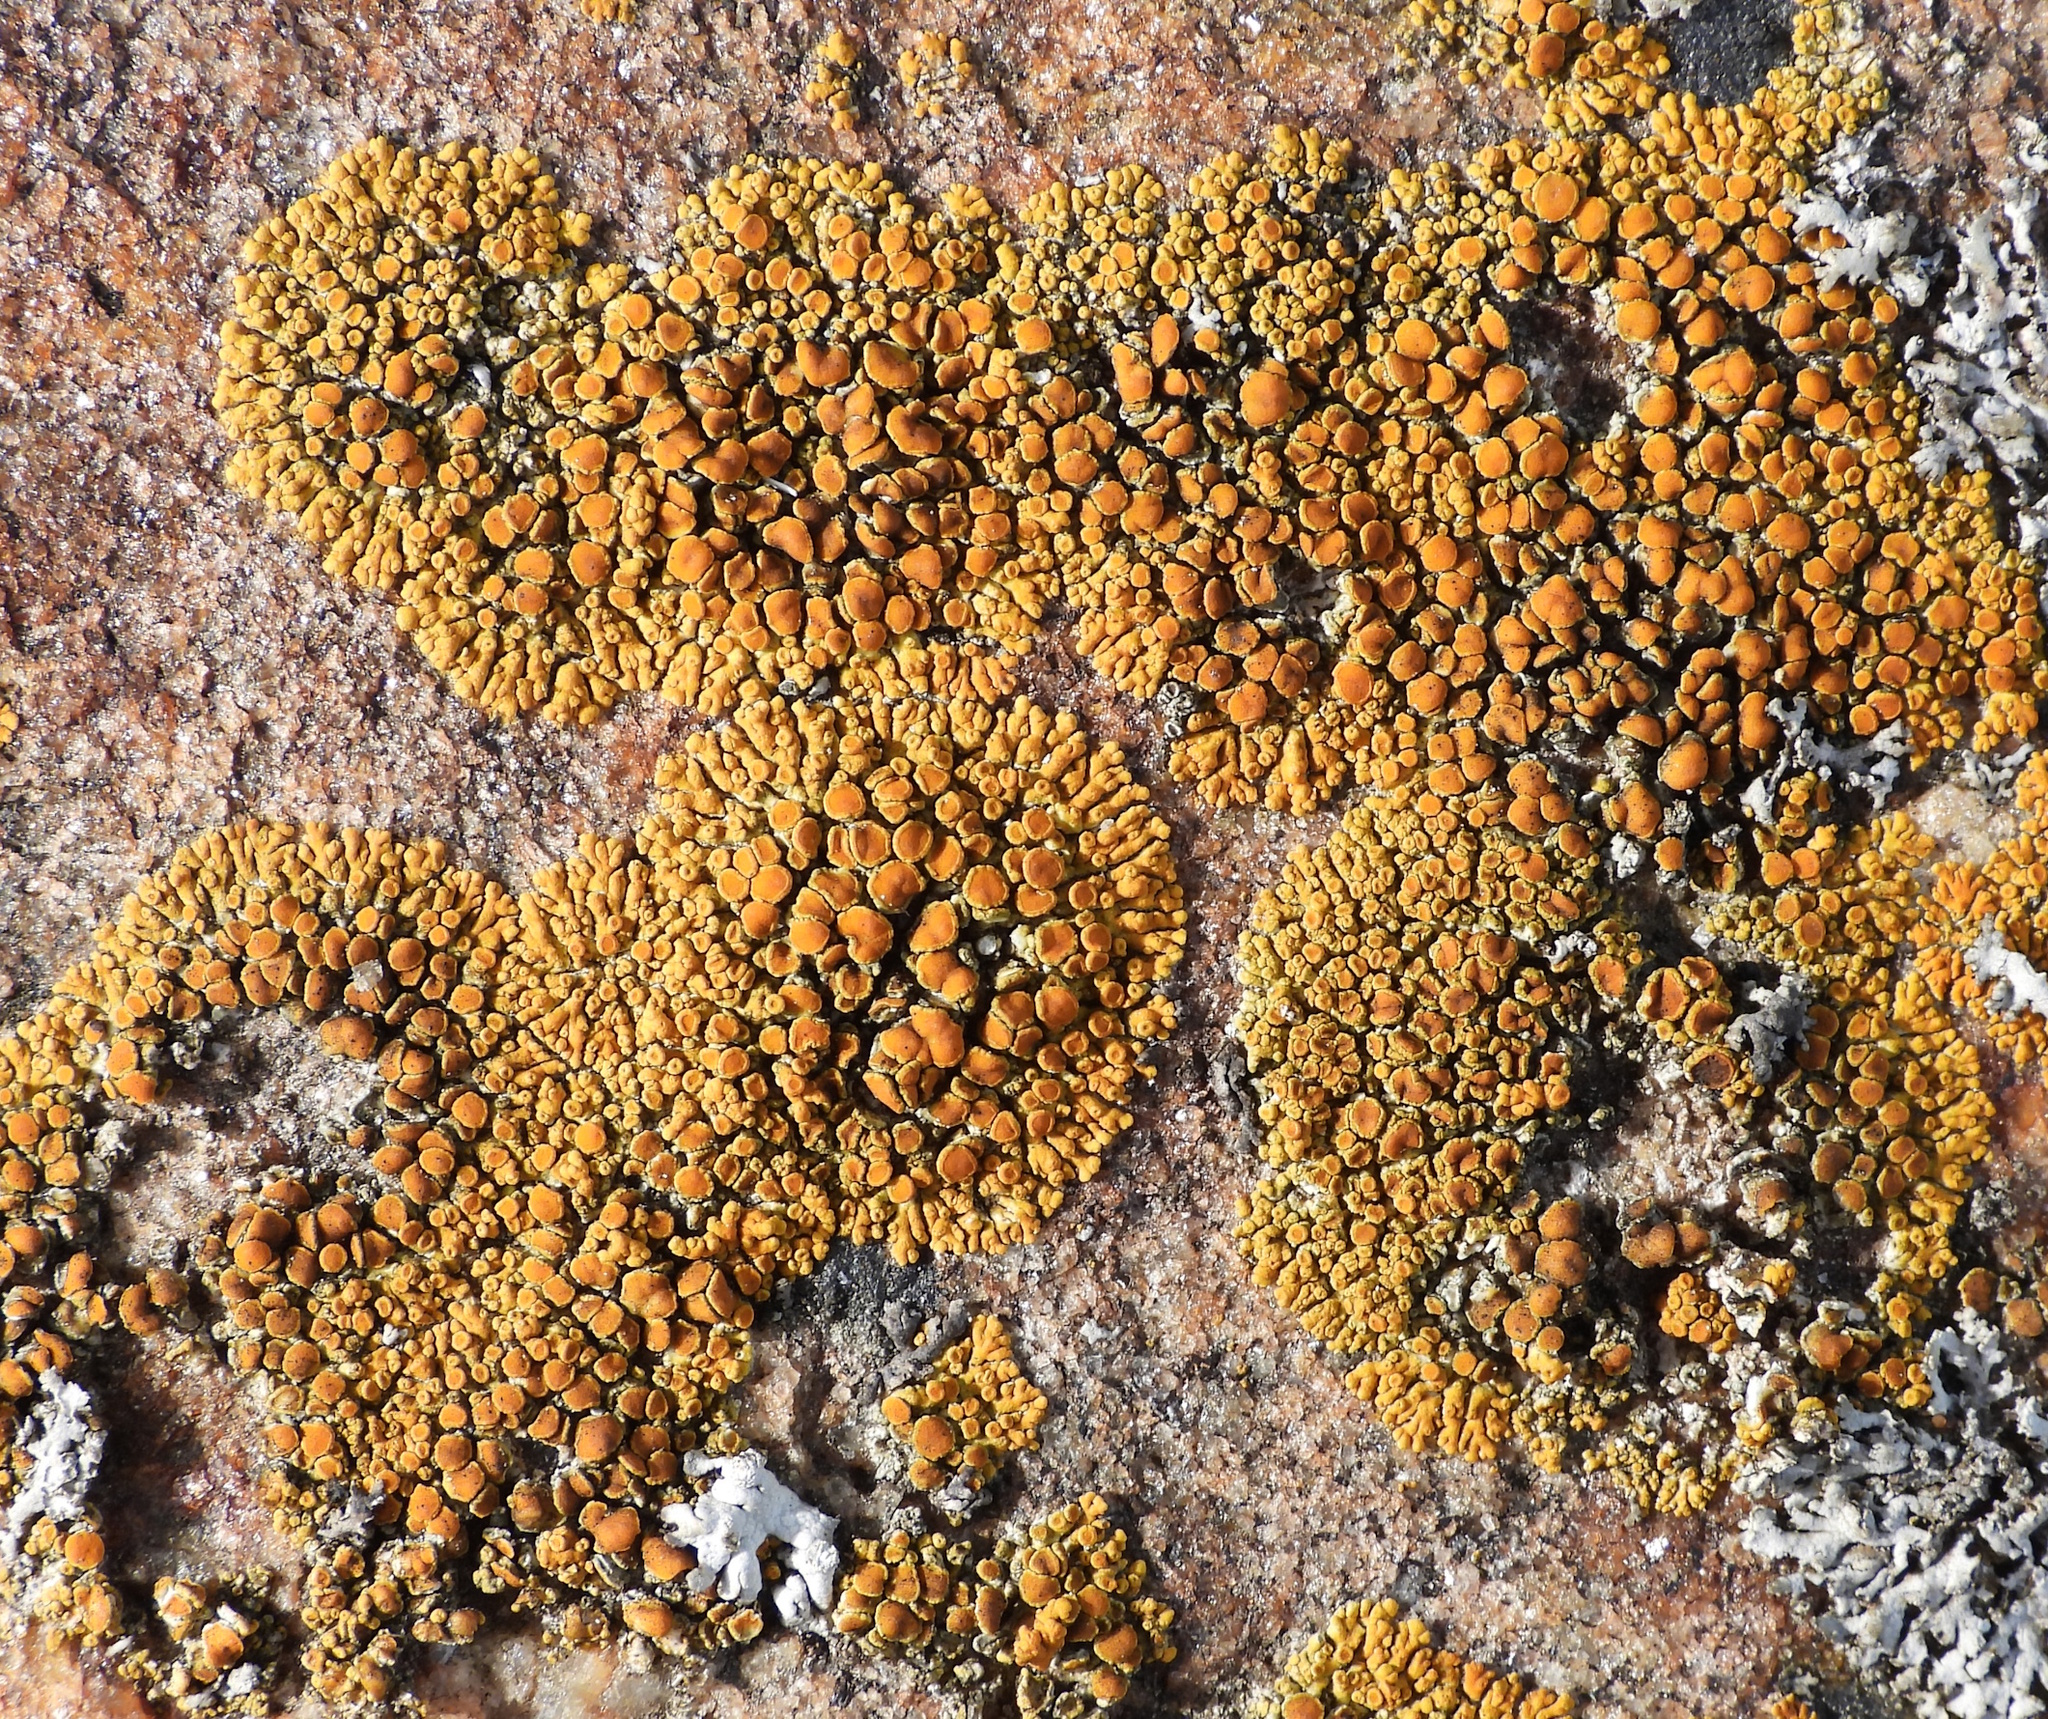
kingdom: Fungi
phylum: Ascomycota
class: Lecanoromycetes
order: Teloschistales
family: Teloschistaceae
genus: Athallia
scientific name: Athallia scopularis
